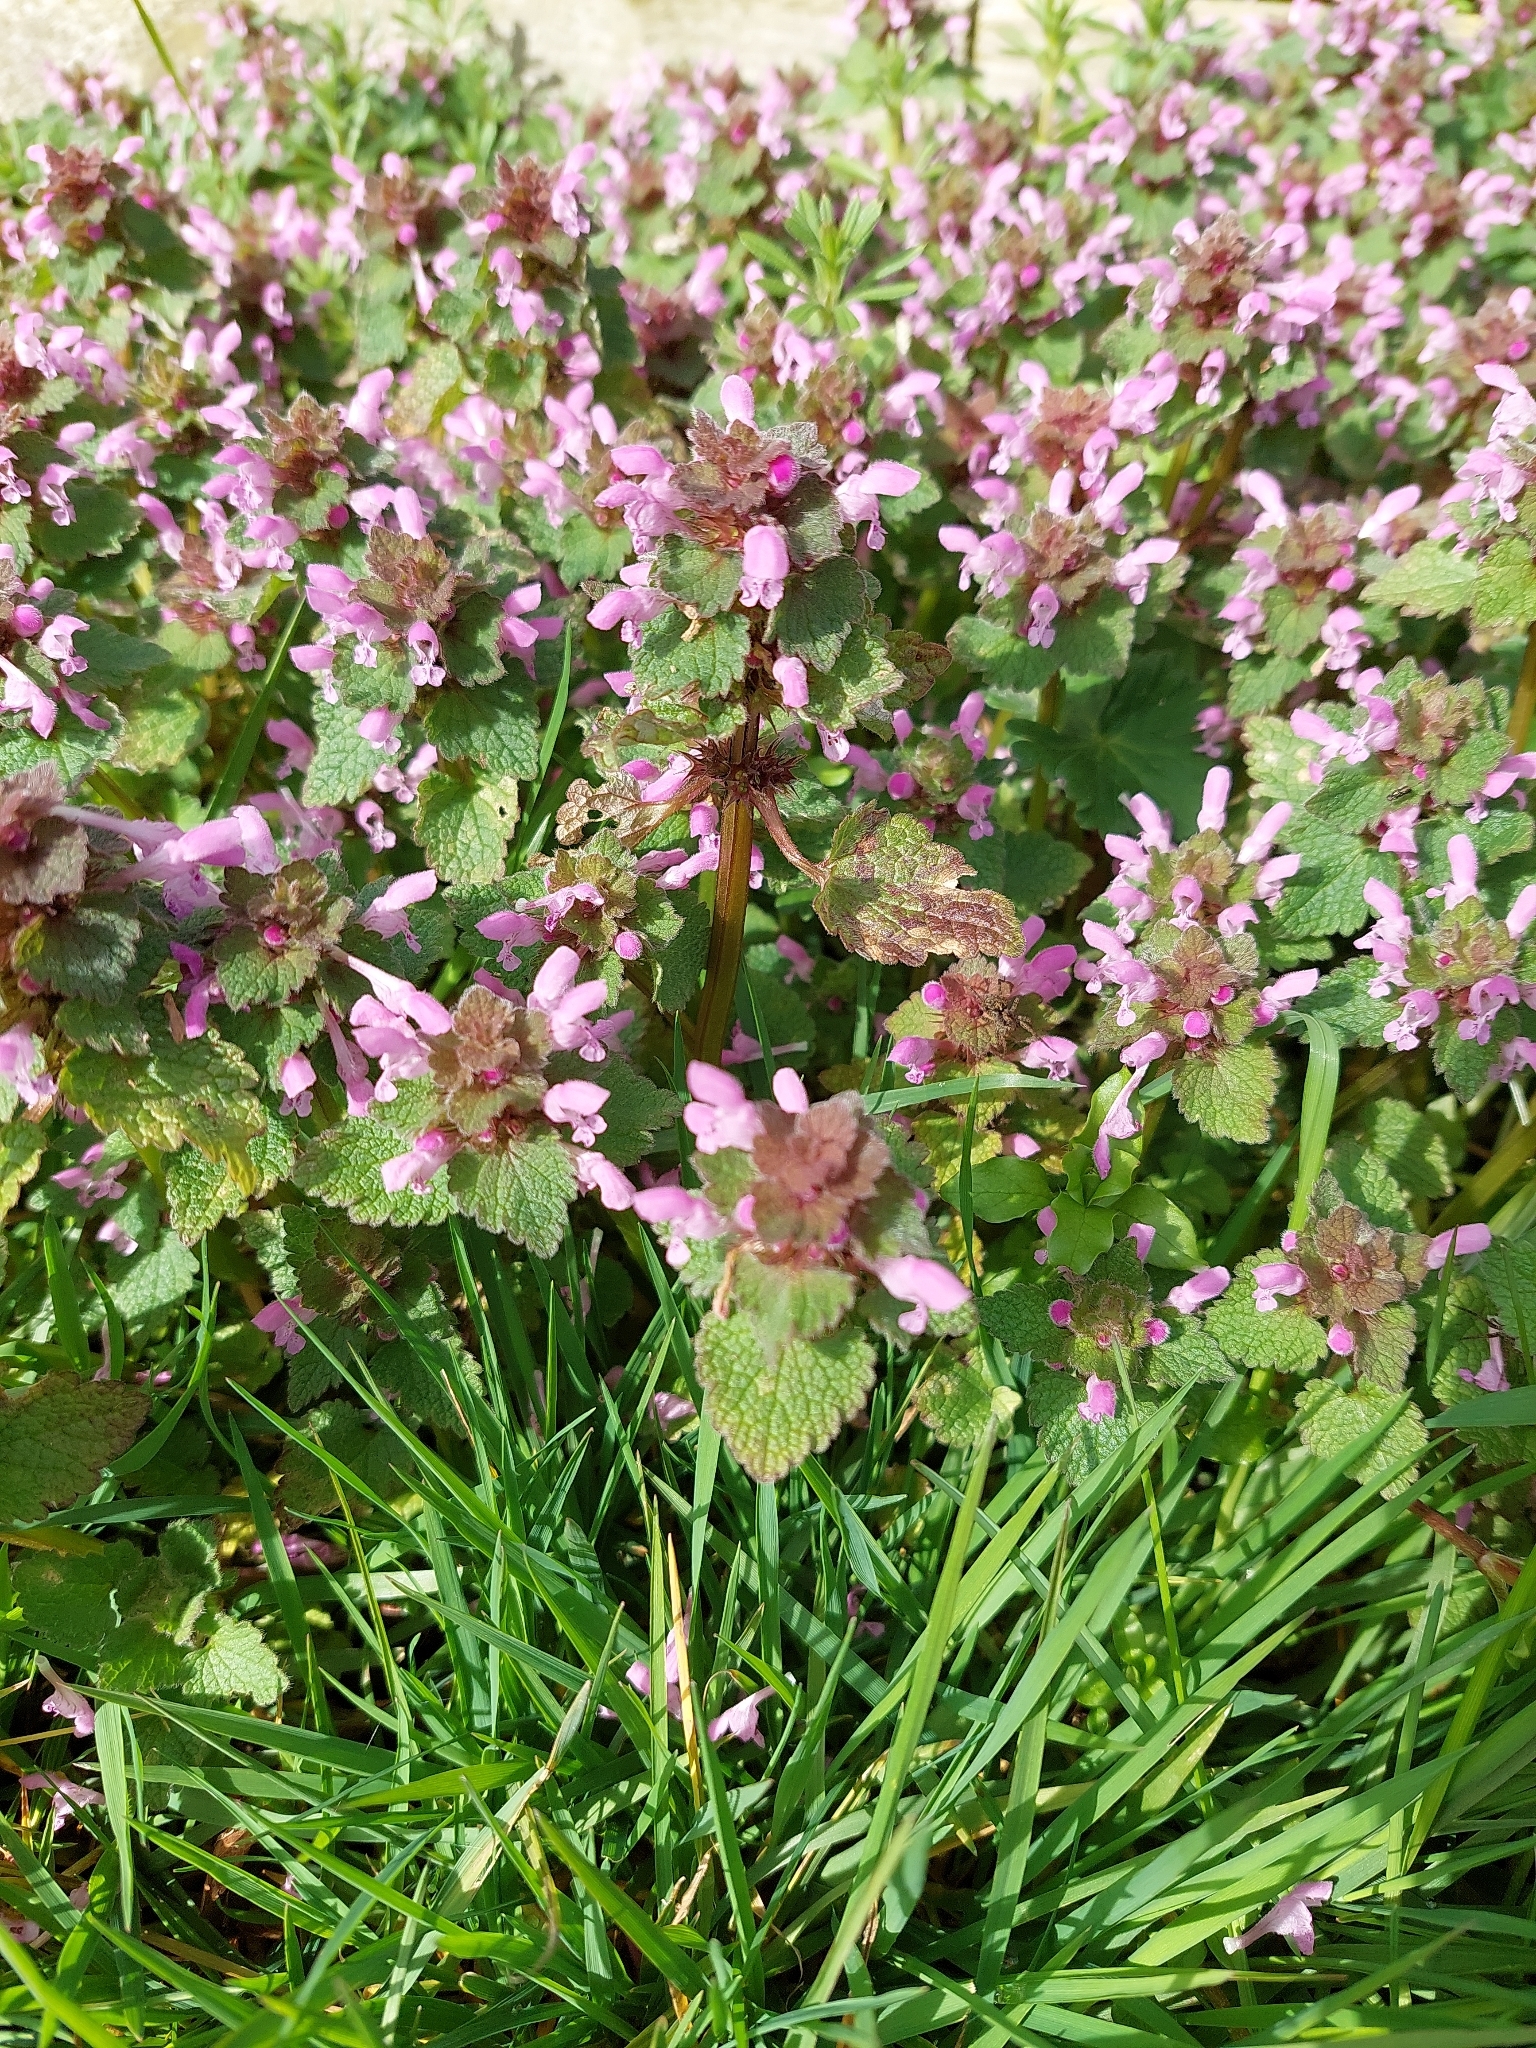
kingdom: Plantae
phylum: Tracheophyta
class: Magnoliopsida
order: Lamiales
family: Lamiaceae
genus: Lamium
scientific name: Lamium purpureum
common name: Red dead-nettle
